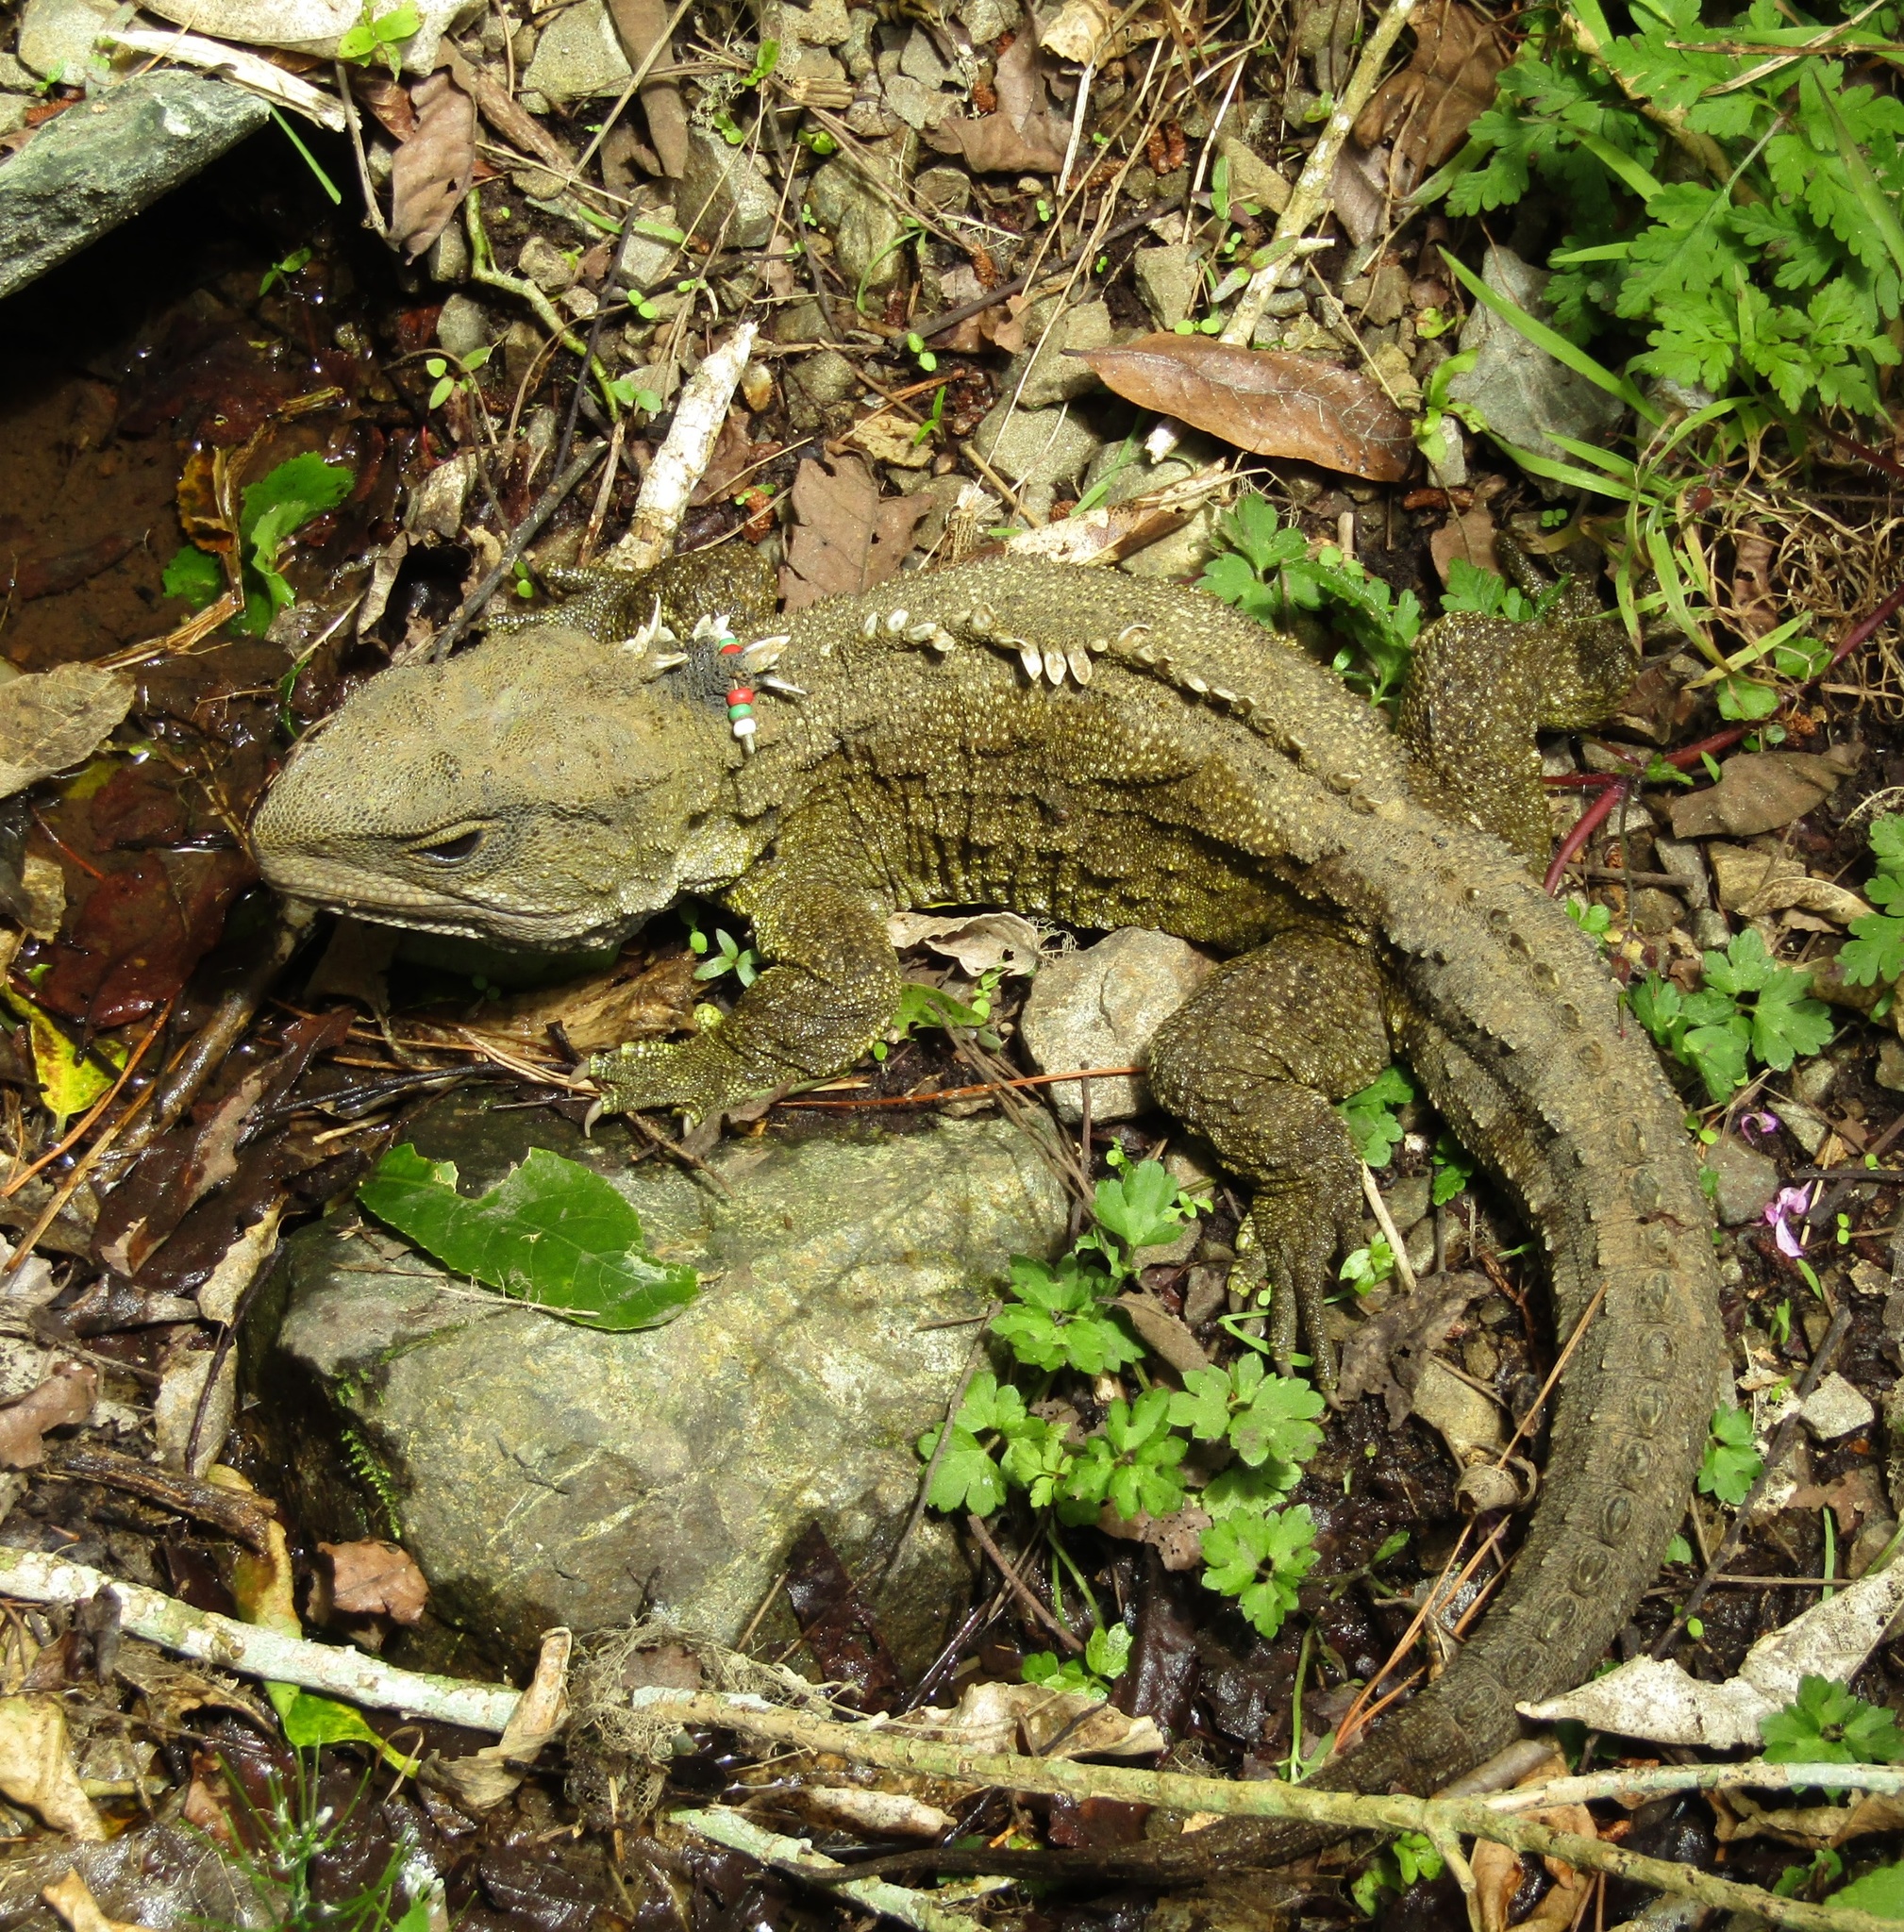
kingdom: Animalia
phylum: Chordata
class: Sphenodontia
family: Sphenodontidae
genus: Sphenodon
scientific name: Sphenodon punctatus
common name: Tuatara
